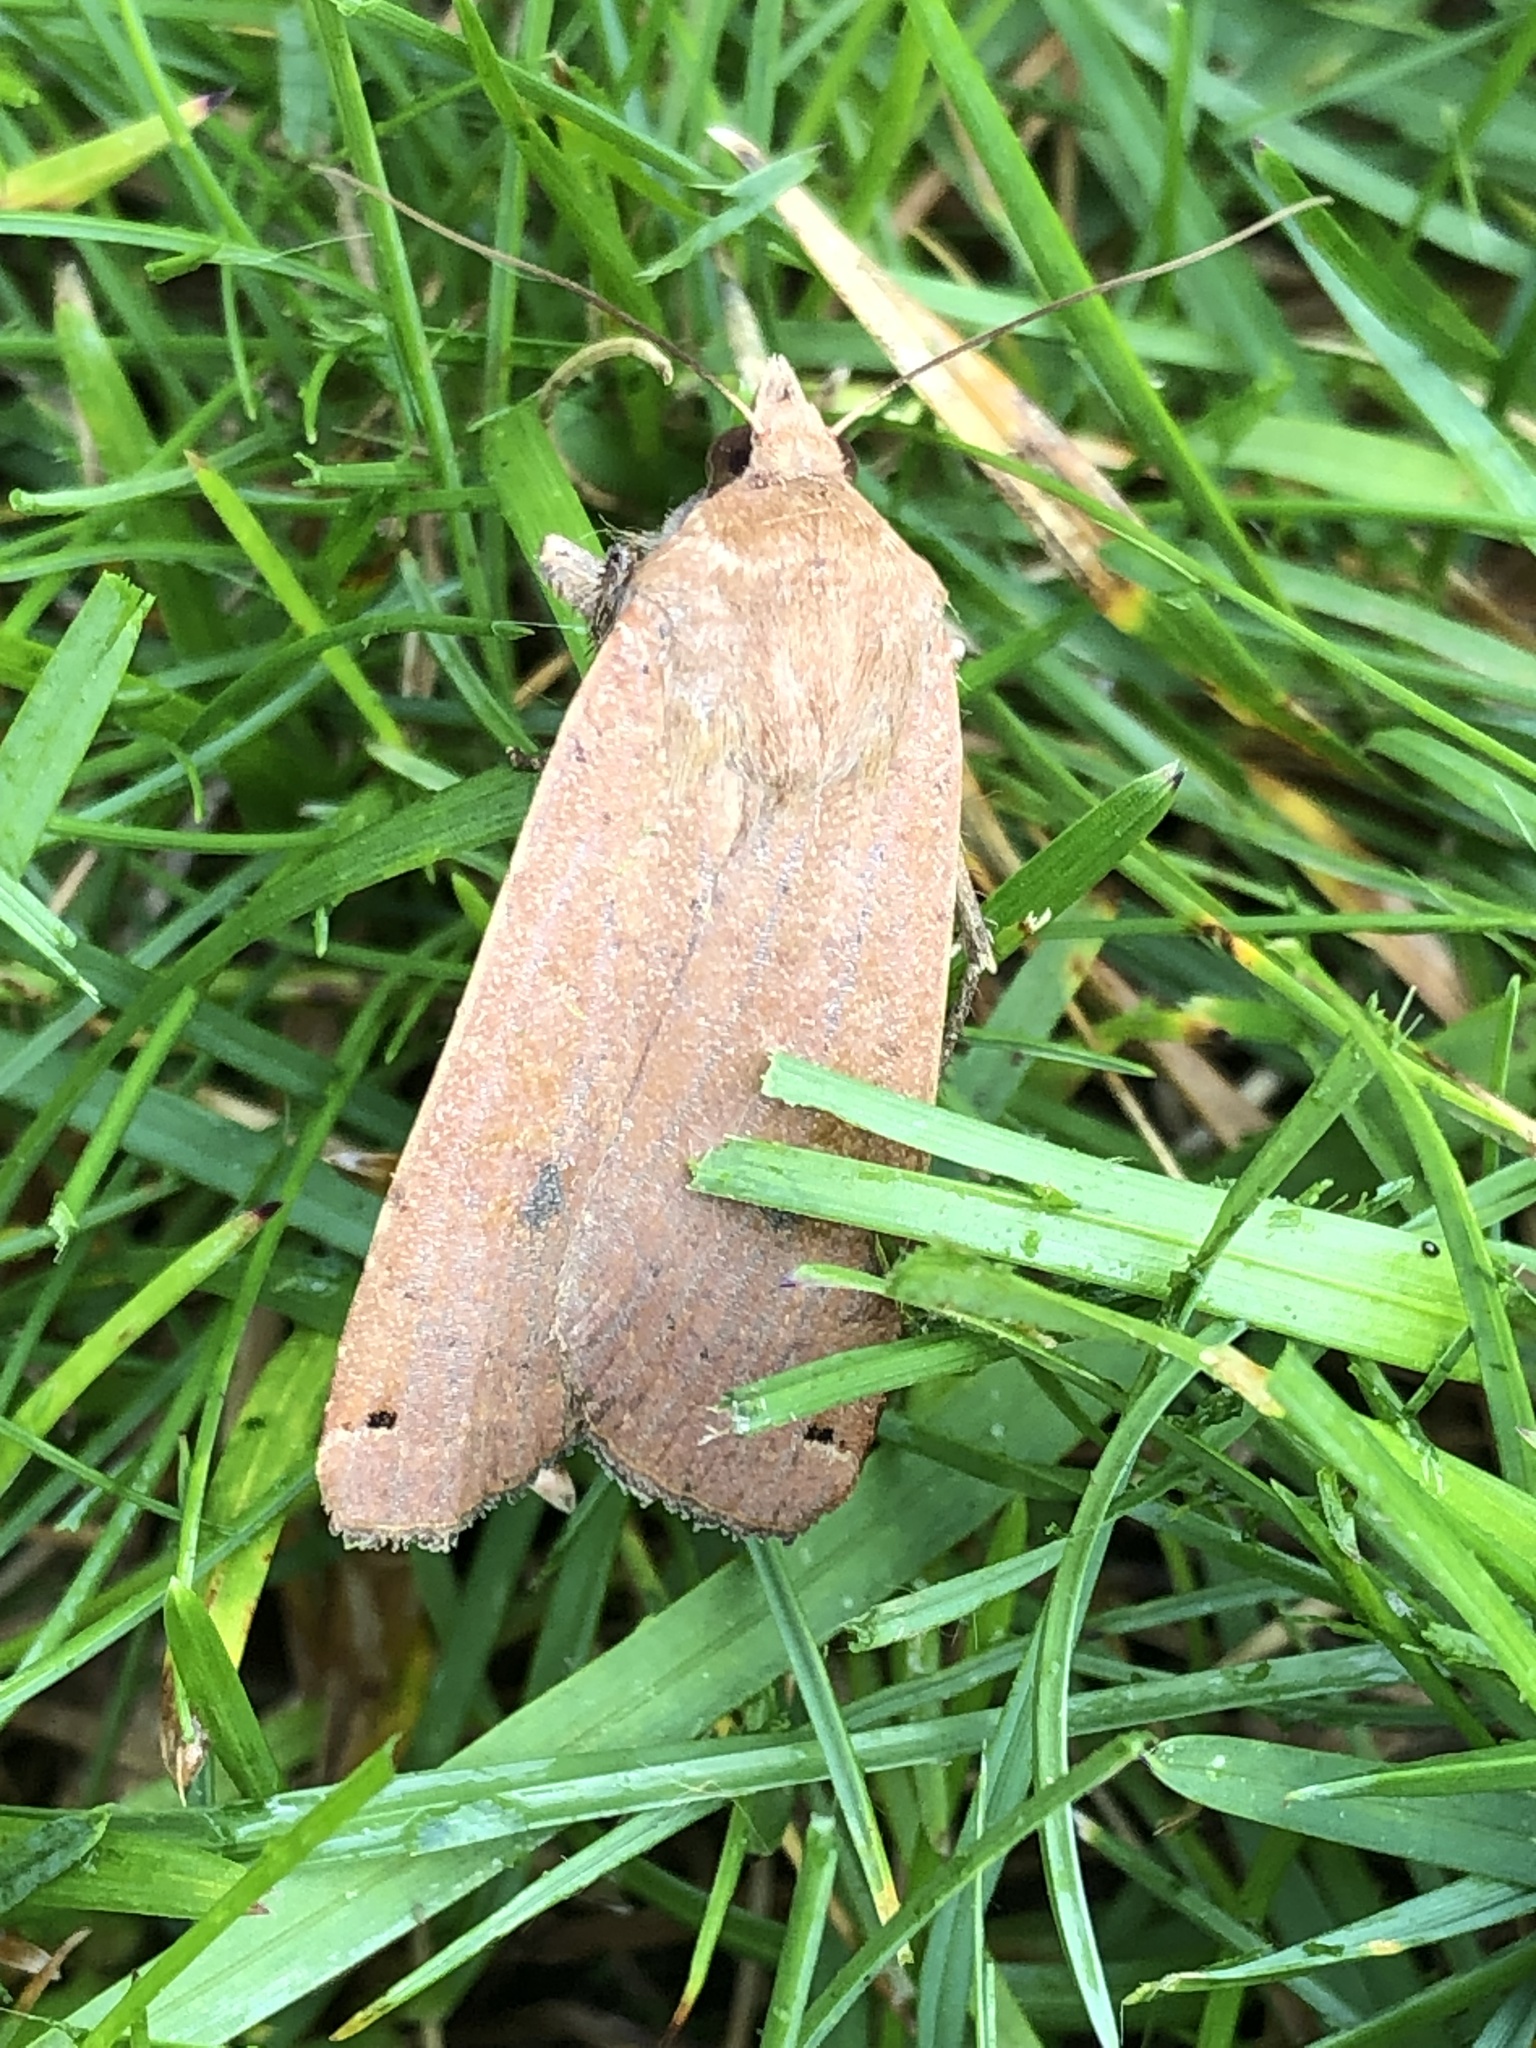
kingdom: Animalia
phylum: Arthropoda
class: Insecta
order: Lepidoptera
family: Noctuidae
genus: Noctua
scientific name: Noctua pronuba
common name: Large yellow underwing
